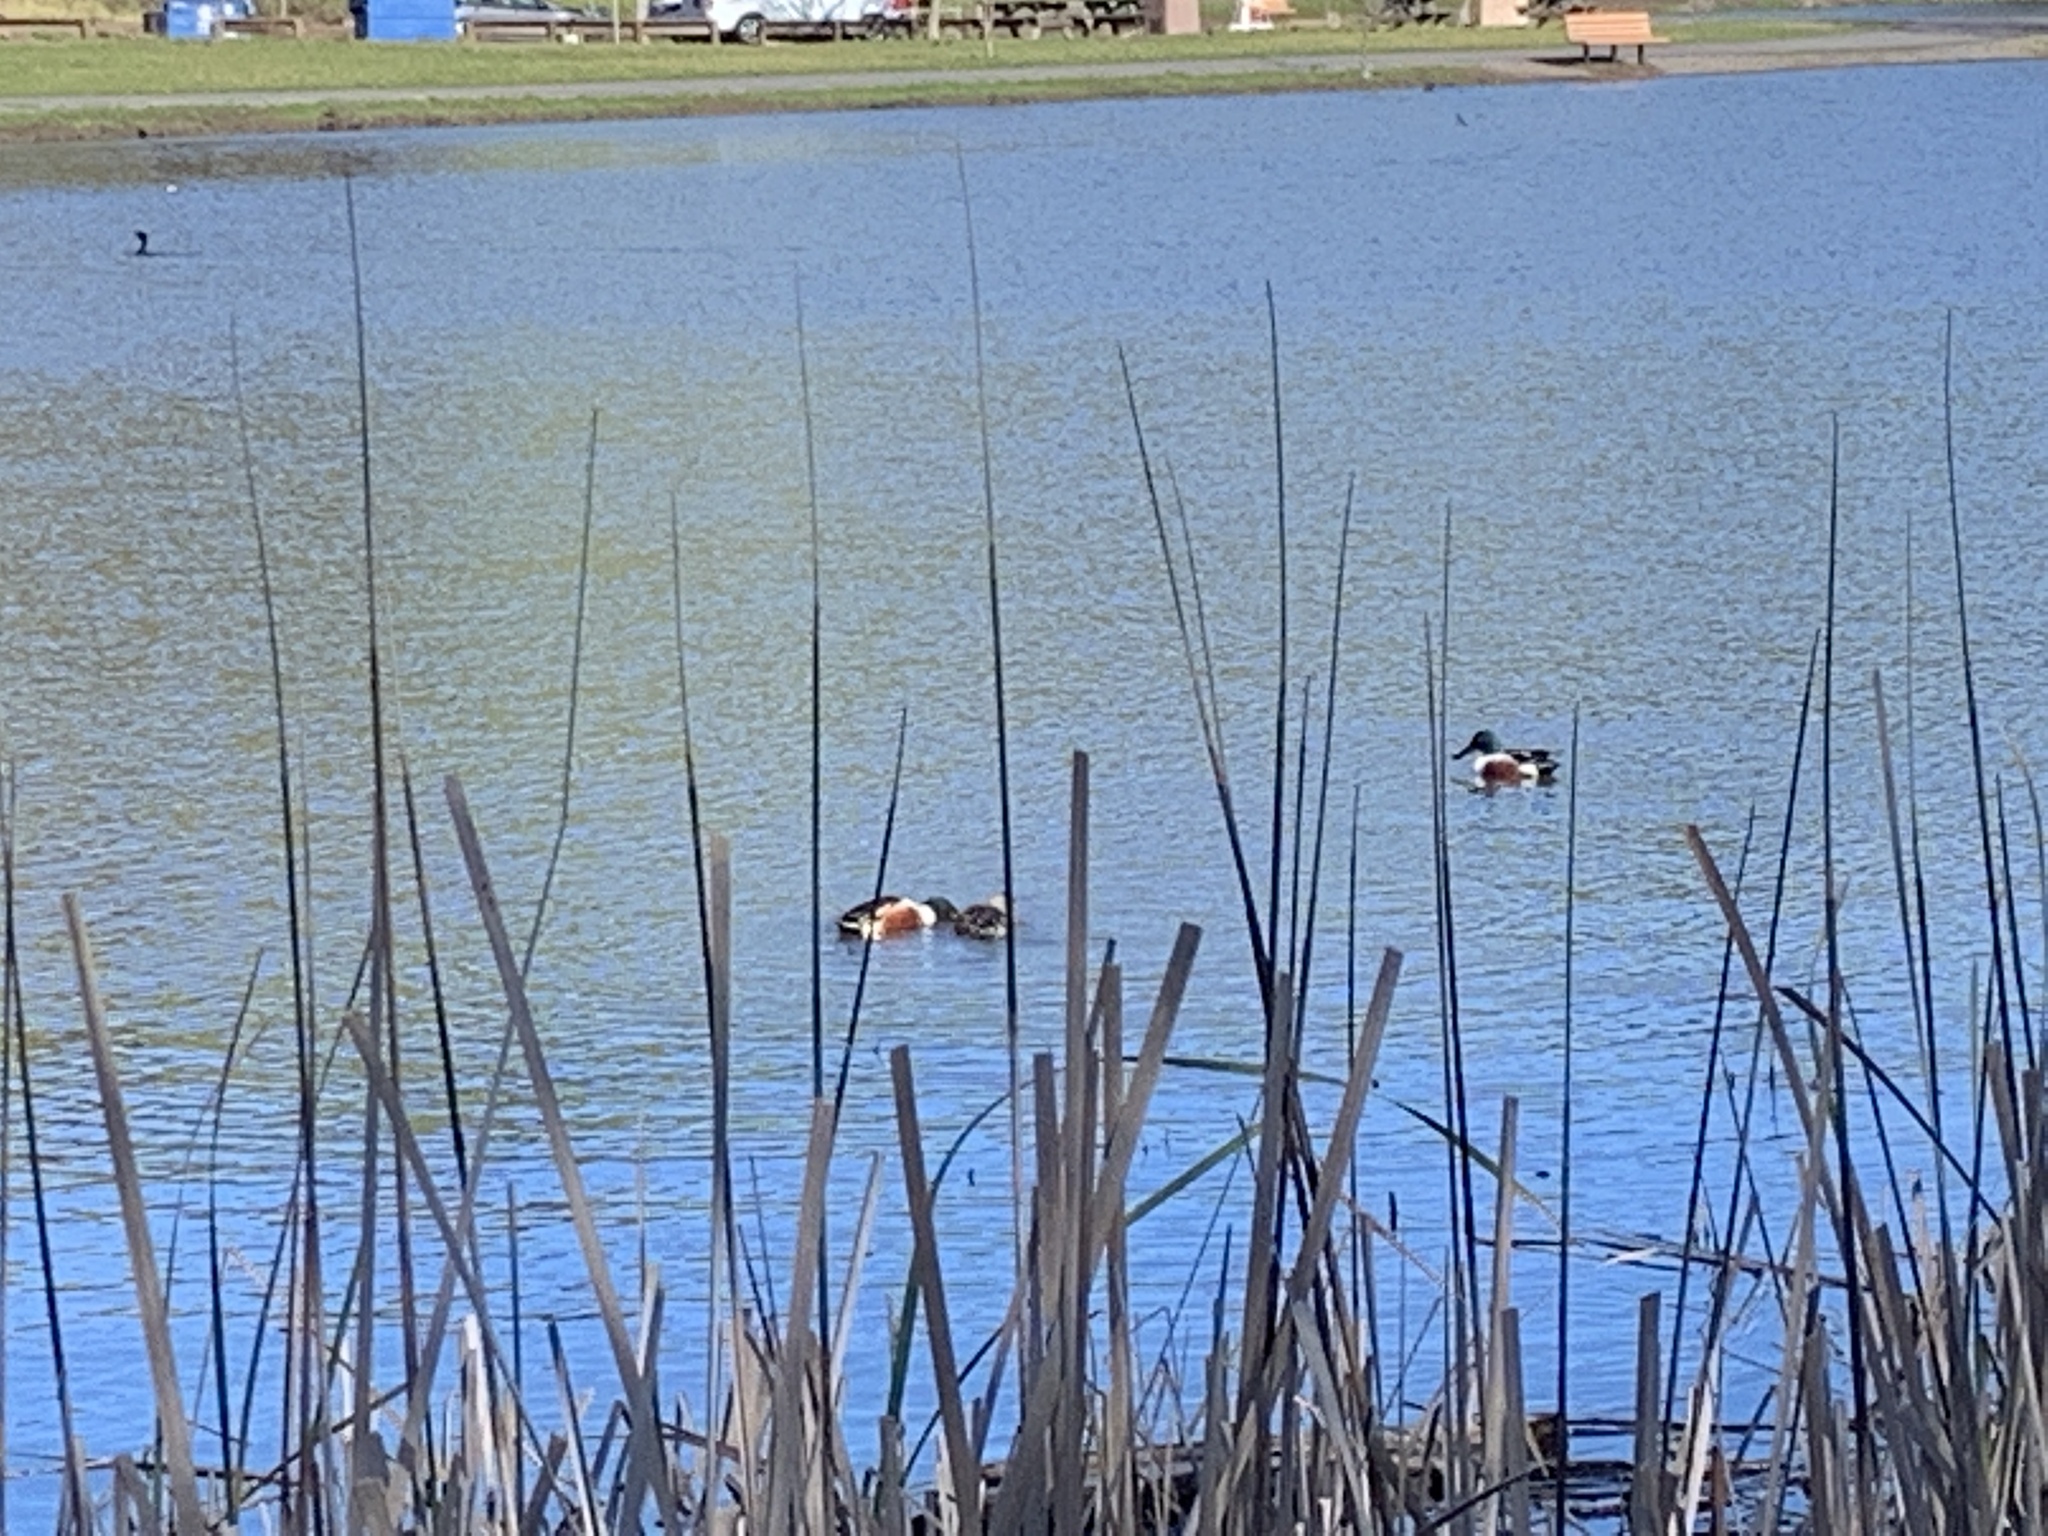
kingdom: Animalia
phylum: Chordata
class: Aves
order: Anseriformes
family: Anatidae
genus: Spatula
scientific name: Spatula clypeata
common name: Northern shoveler
